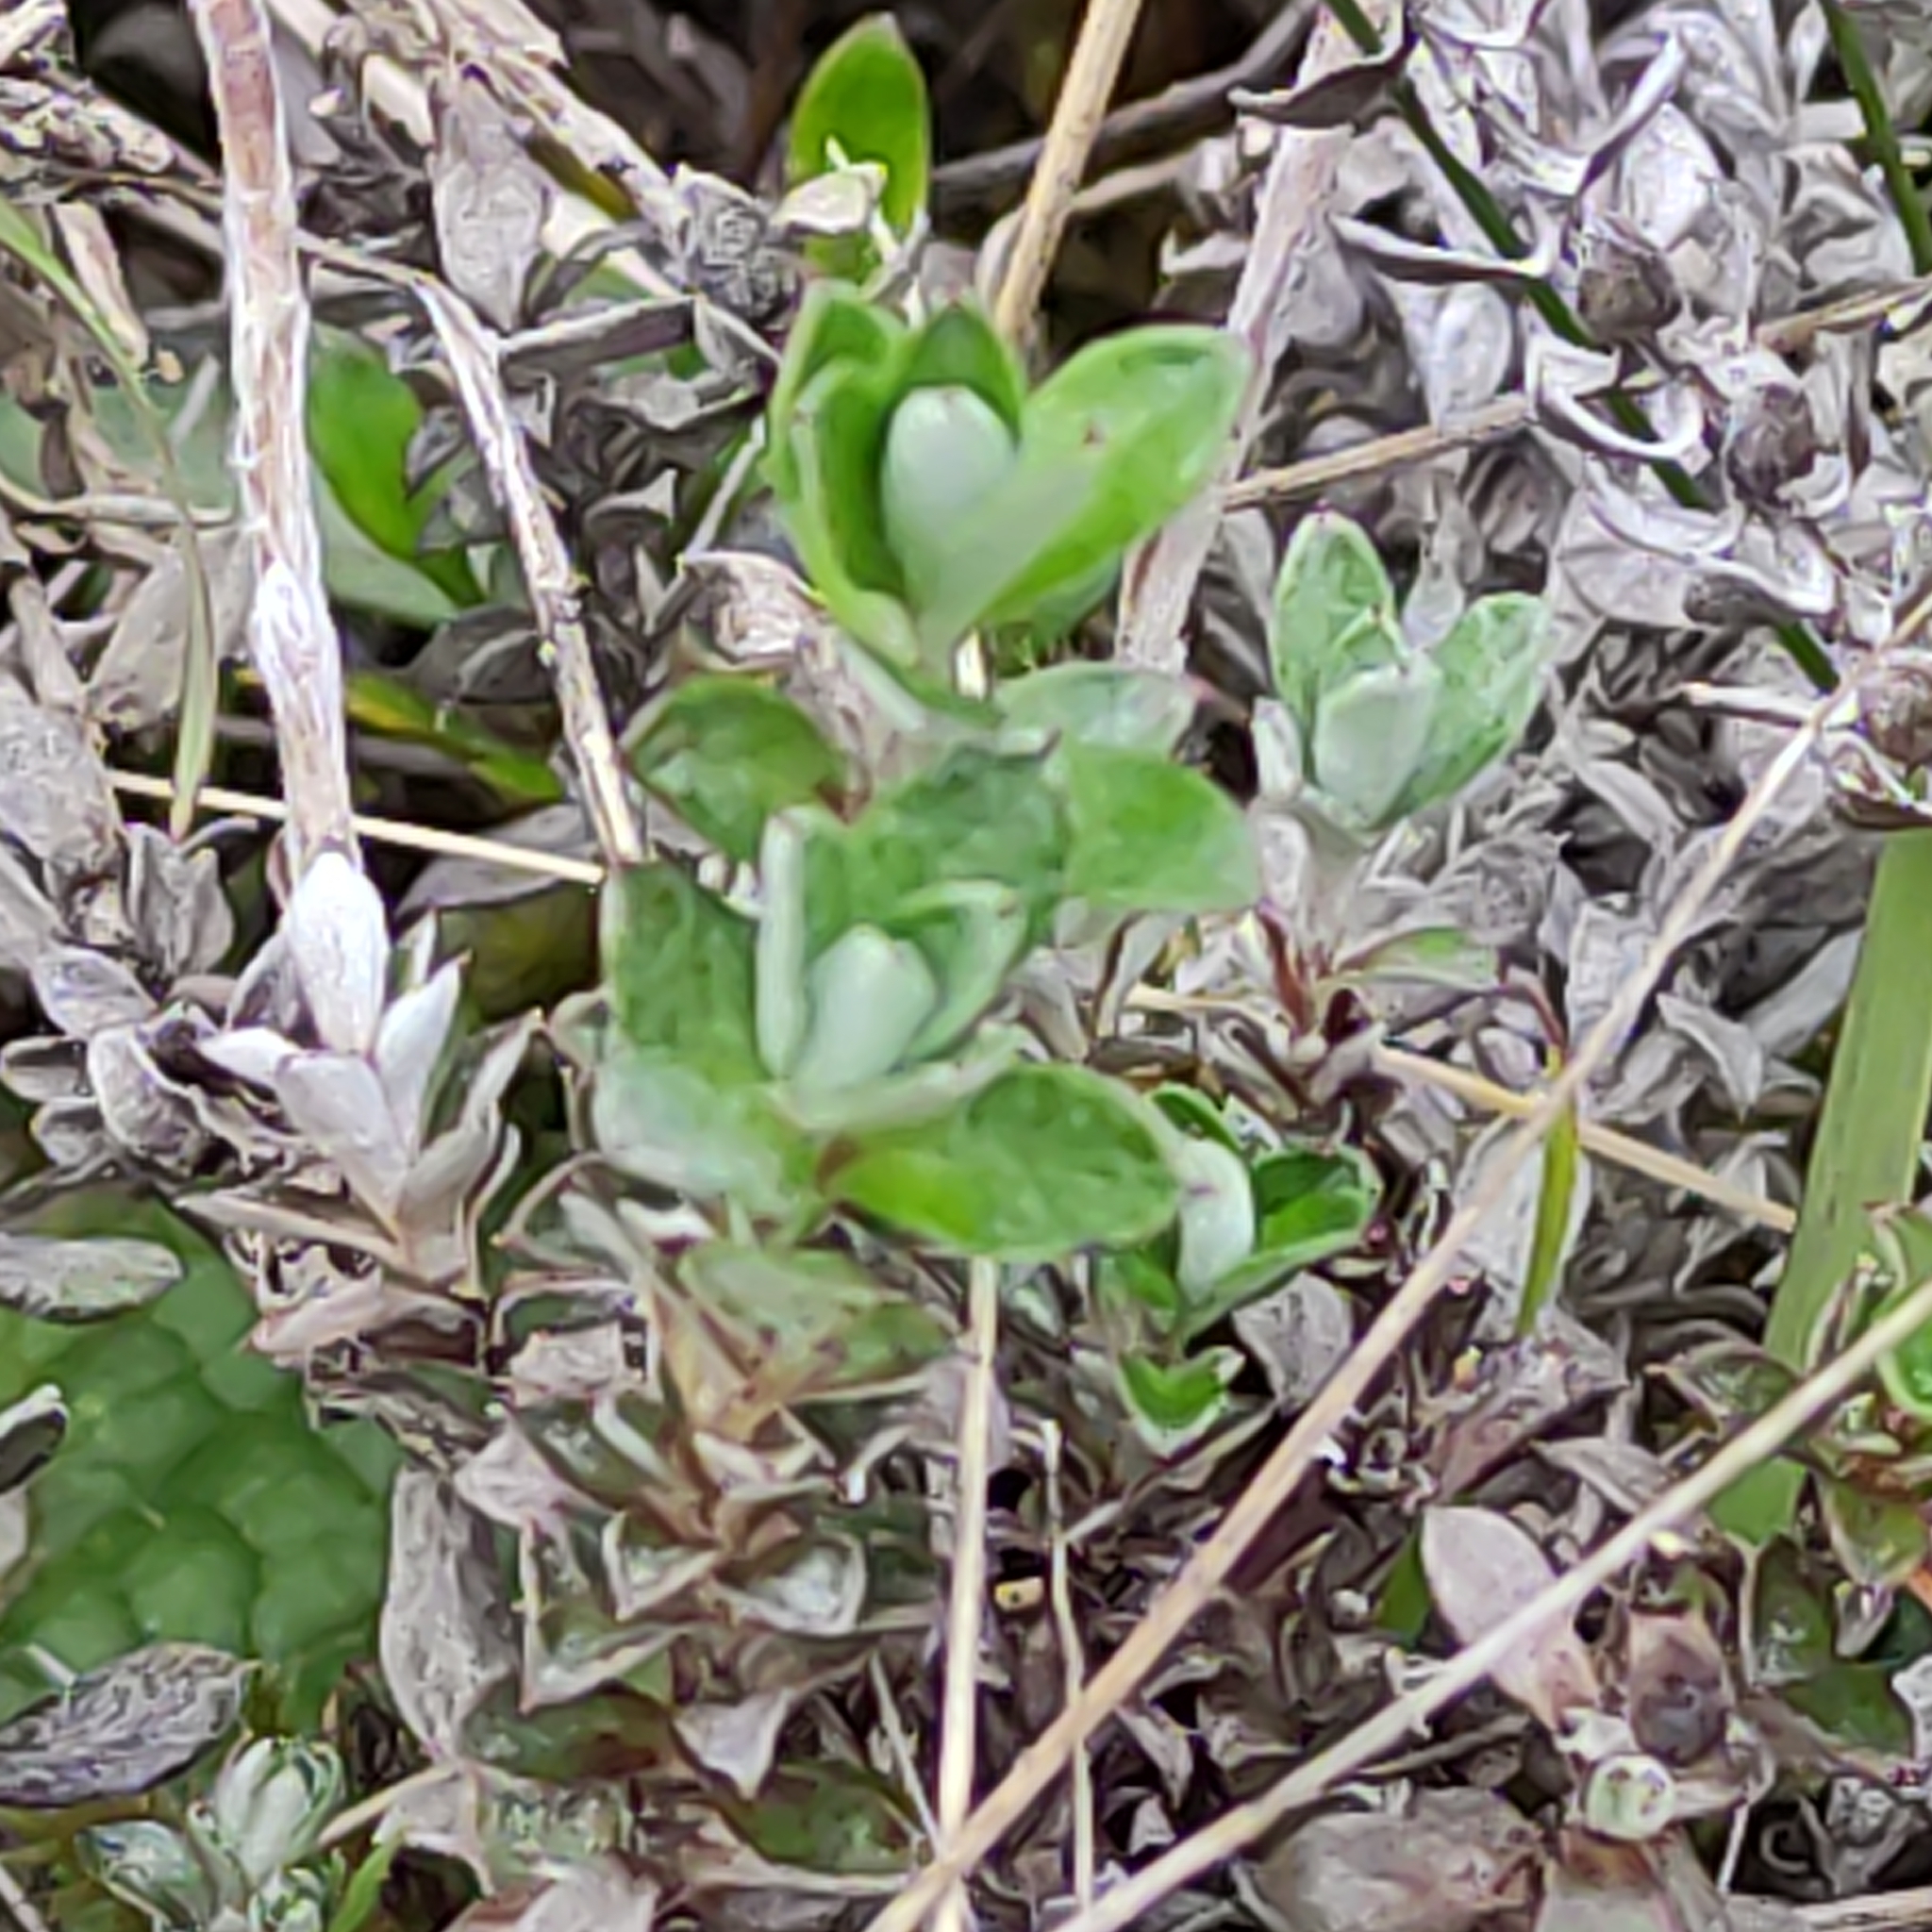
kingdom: Plantae
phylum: Tracheophyta
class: Magnoliopsida
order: Asterales
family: Asteraceae
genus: Anaphalioides
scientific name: Anaphalioides bellidioides
